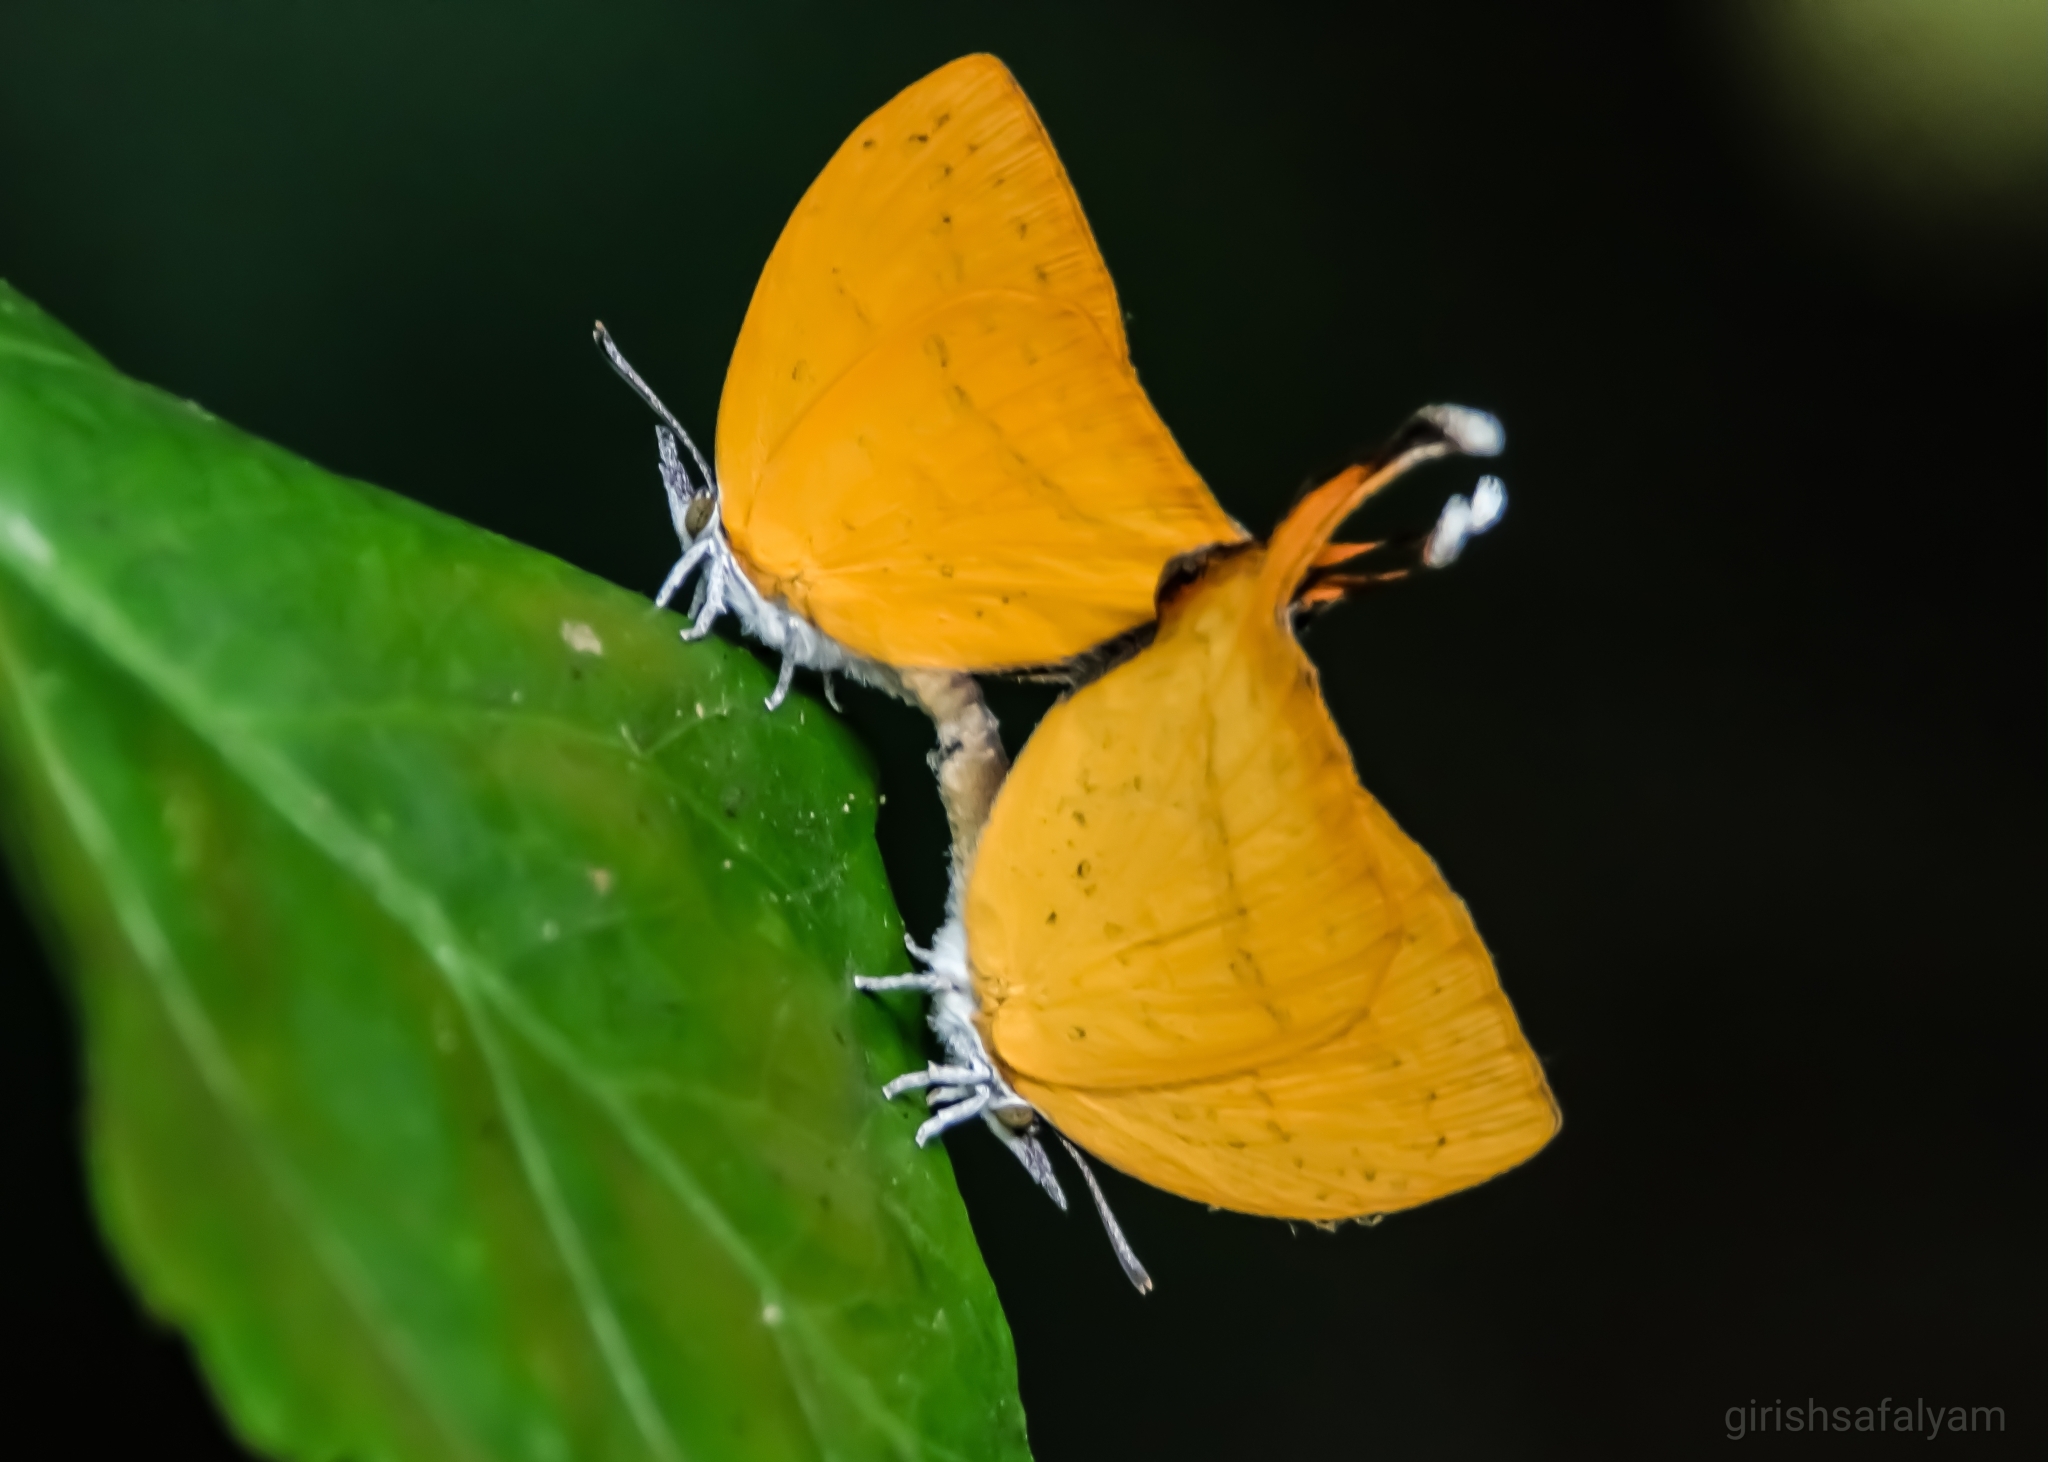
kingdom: Animalia
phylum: Arthropoda
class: Insecta
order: Lepidoptera
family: Lycaenidae
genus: Loxura
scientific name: Loxura atymnus
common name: Common yamfly
